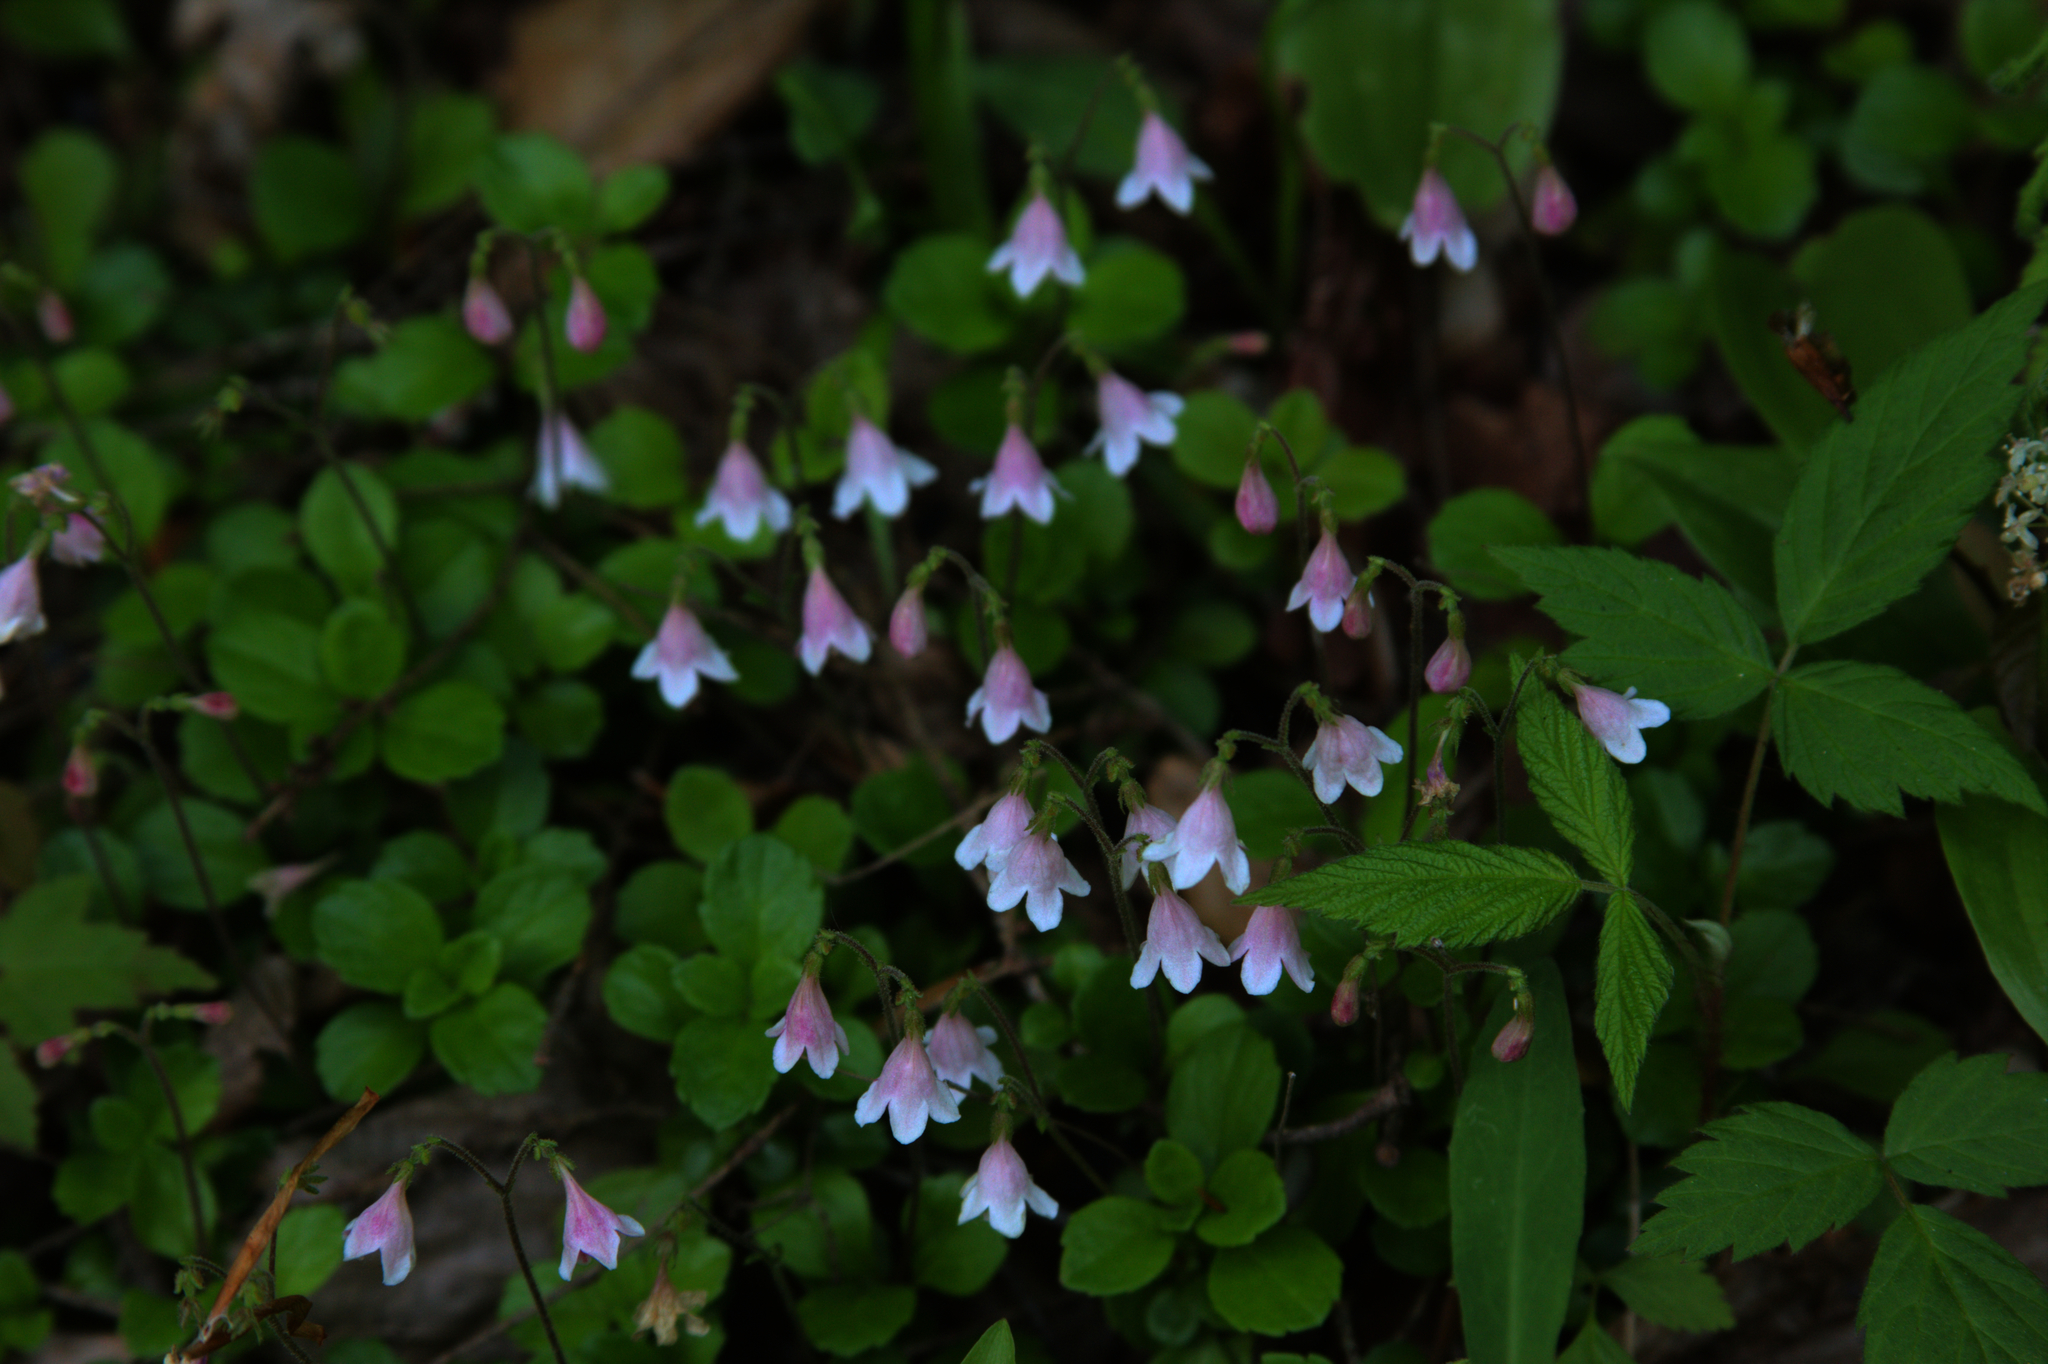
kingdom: Plantae
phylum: Tracheophyta
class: Magnoliopsida
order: Dipsacales
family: Caprifoliaceae
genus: Linnaea
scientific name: Linnaea borealis
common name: Twinflower
